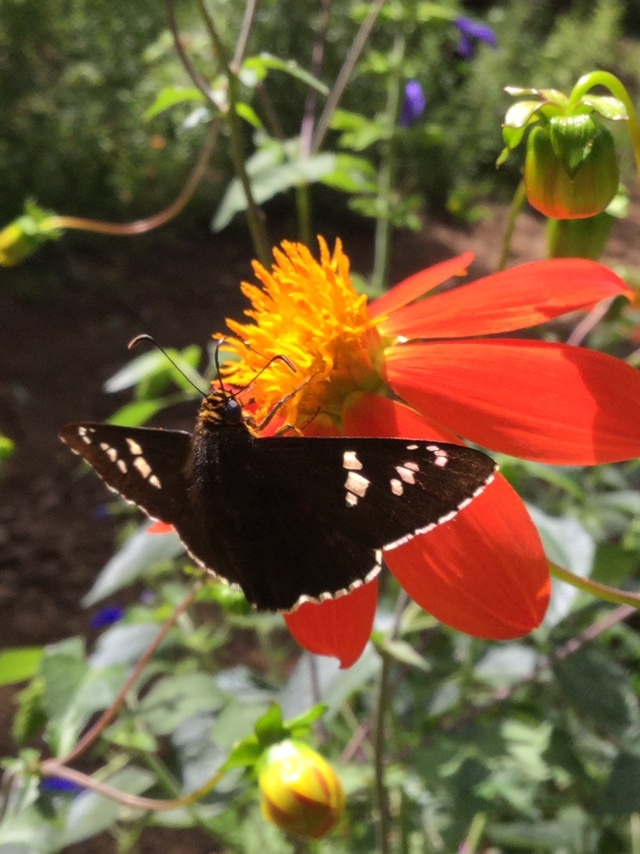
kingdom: Animalia
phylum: Arthropoda
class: Insecta
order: Lepidoptera
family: Hesperiidae
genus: Pyrrhopyge
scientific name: Pyrrhopyge araxes
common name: Dull firetip
